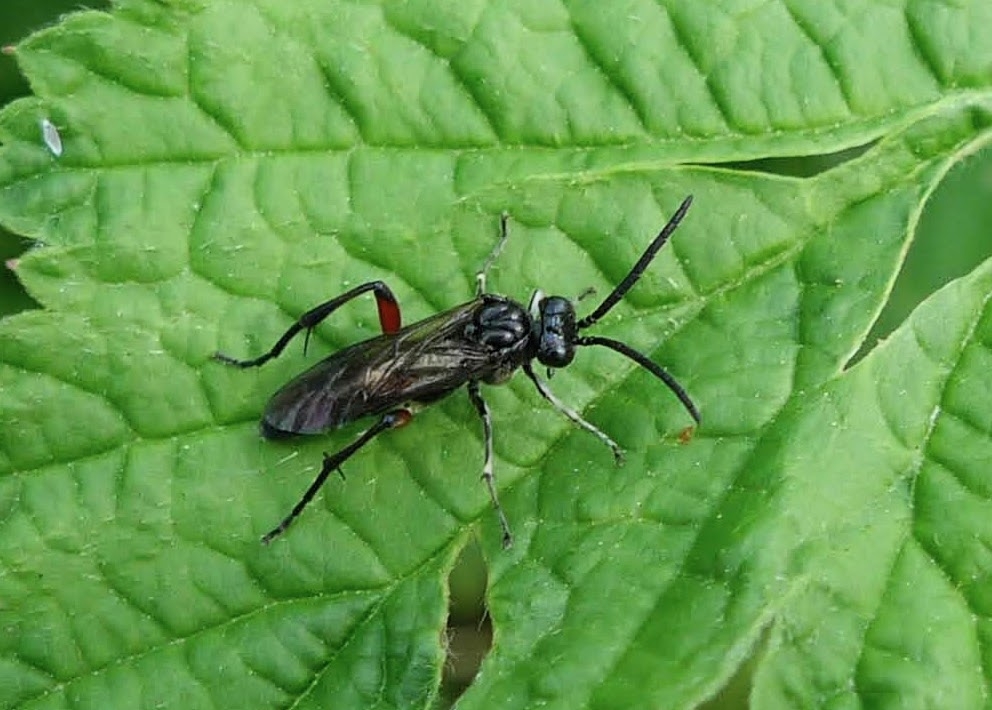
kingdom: Animalia
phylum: Arthropoda
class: Insecta
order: Hymenoptera
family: Tenthredinidae
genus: Macrophya
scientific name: Macrophya sanguinolenta
